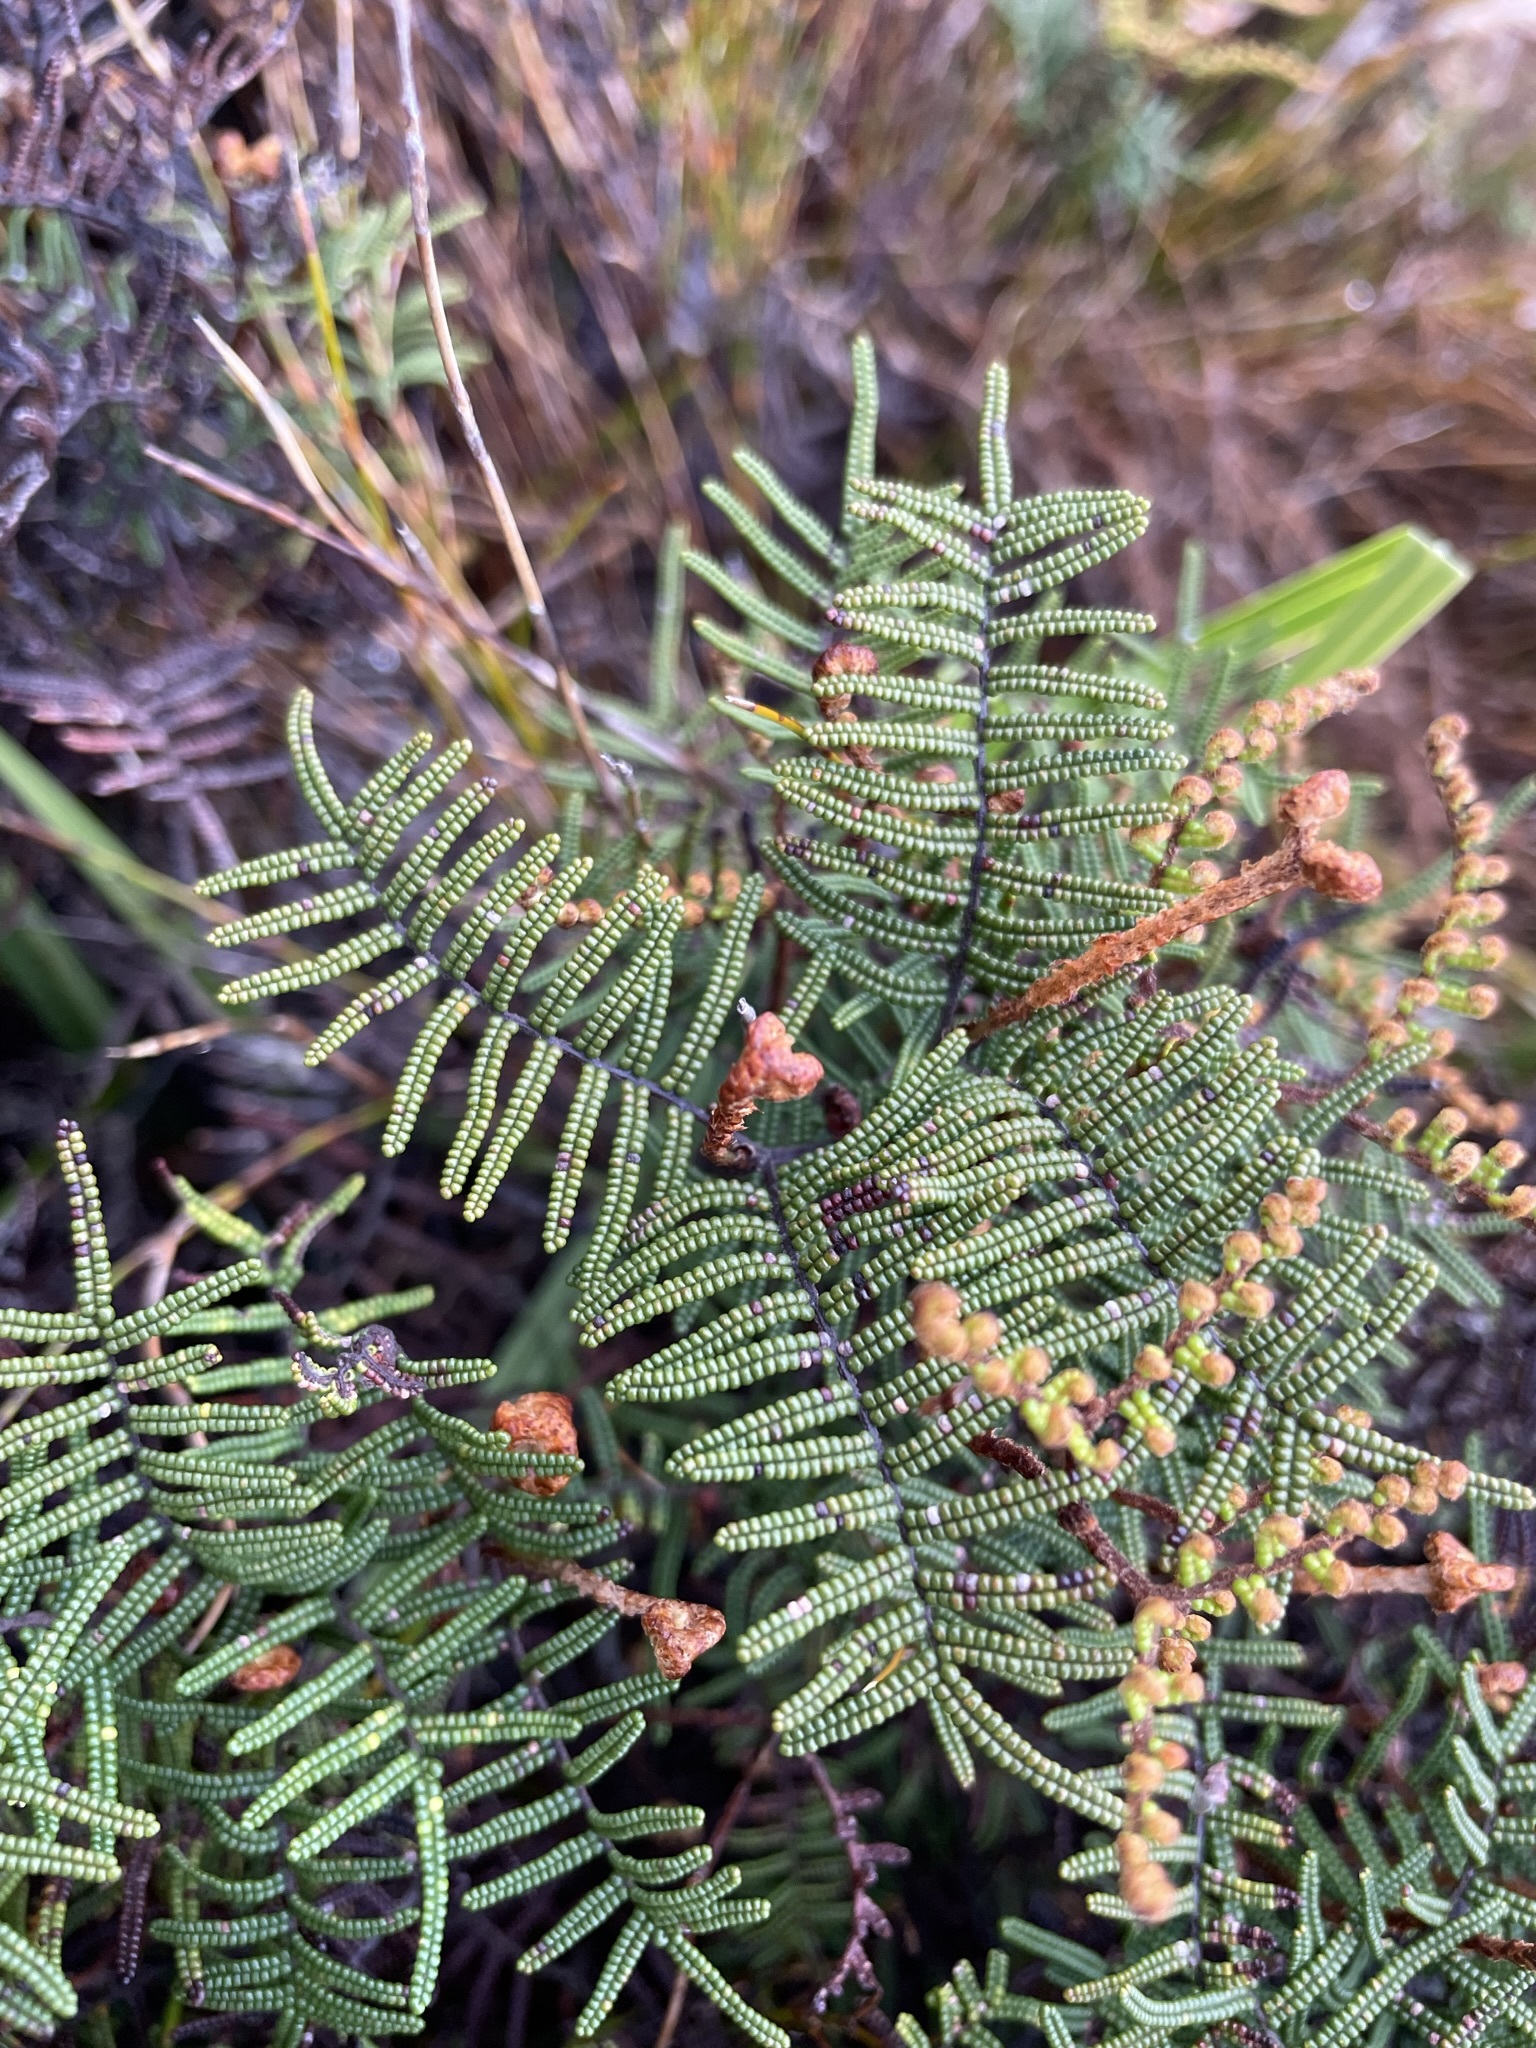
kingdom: Plantae
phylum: Tracheophyta
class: Polypodiopsida
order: Gleicheniales
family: Gleicheniaceae
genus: Gleichenia
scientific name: Gleichenia alpina
